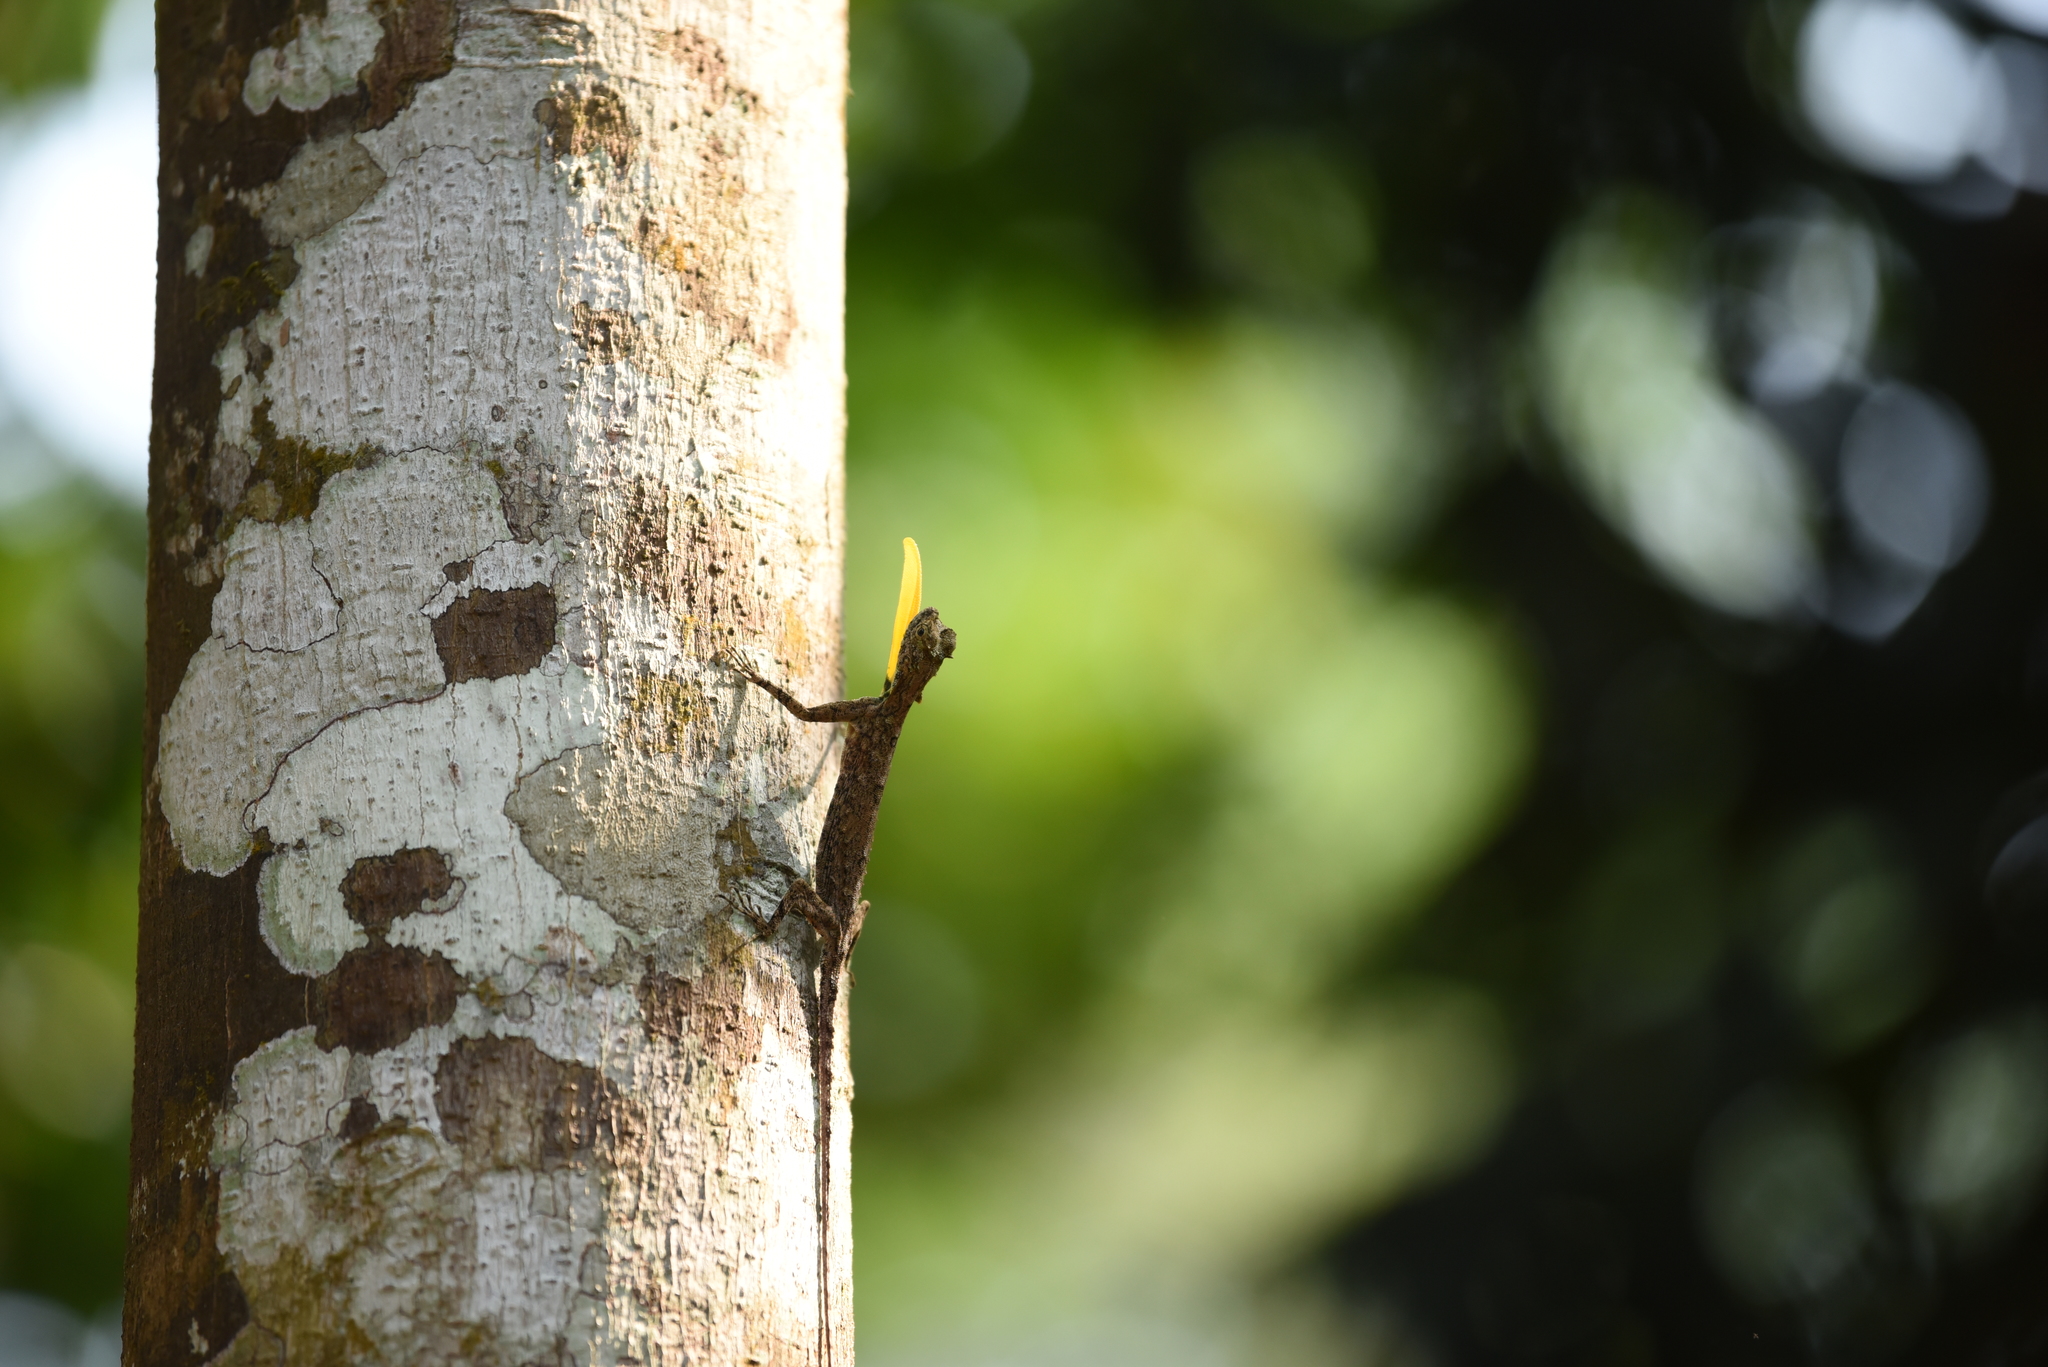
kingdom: Animalia
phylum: Chordata
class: Squamata
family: Agamidae
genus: Draco
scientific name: Draco dussumieri
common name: Southern flying lizard
